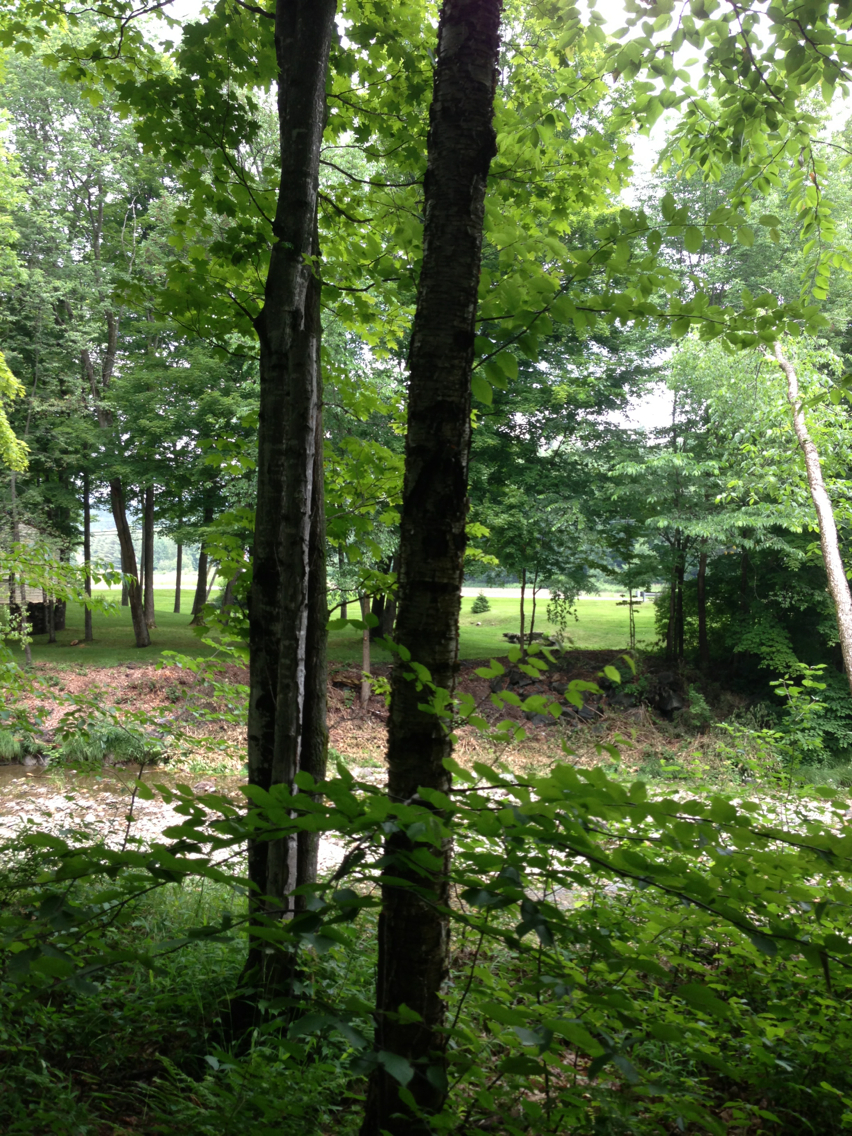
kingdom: Plantae
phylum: Tracheophyta
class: Magnoliopsida
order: Fagales
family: Betulaceae
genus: Betula
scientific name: Betula alleghaniensis
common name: Yellow birch
